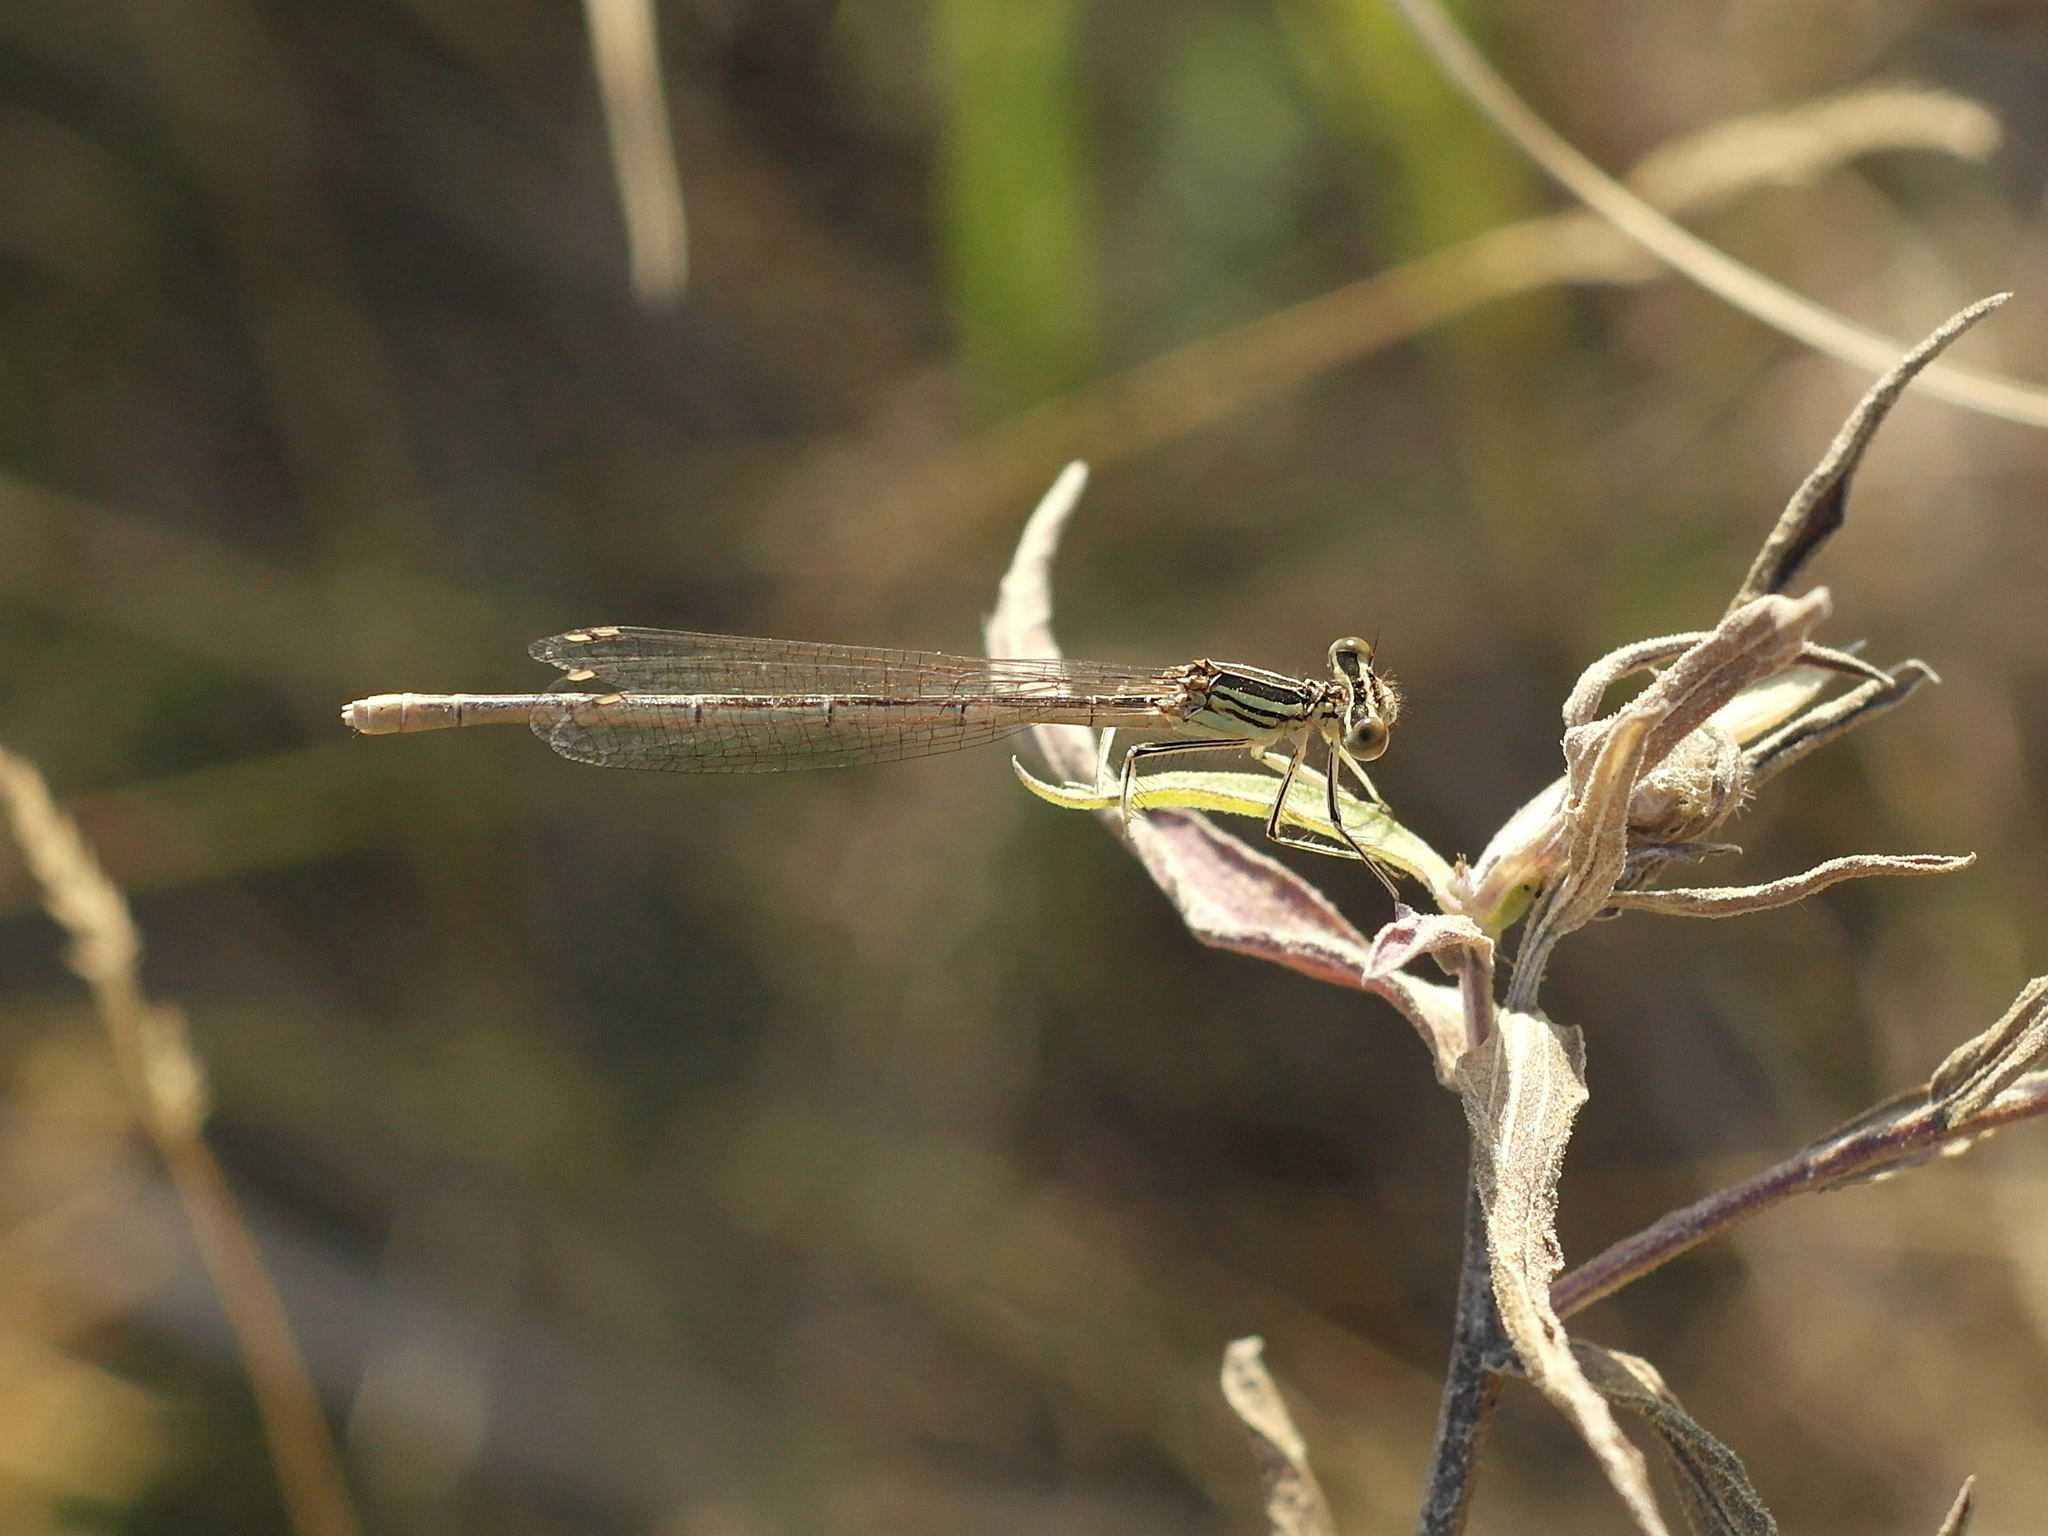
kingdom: Animalia
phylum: Arthropoda
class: Insecta
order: Odonata
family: Platycnemididae
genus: Platycnemis
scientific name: Platycnemis pennipes
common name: White-legged damselfly
